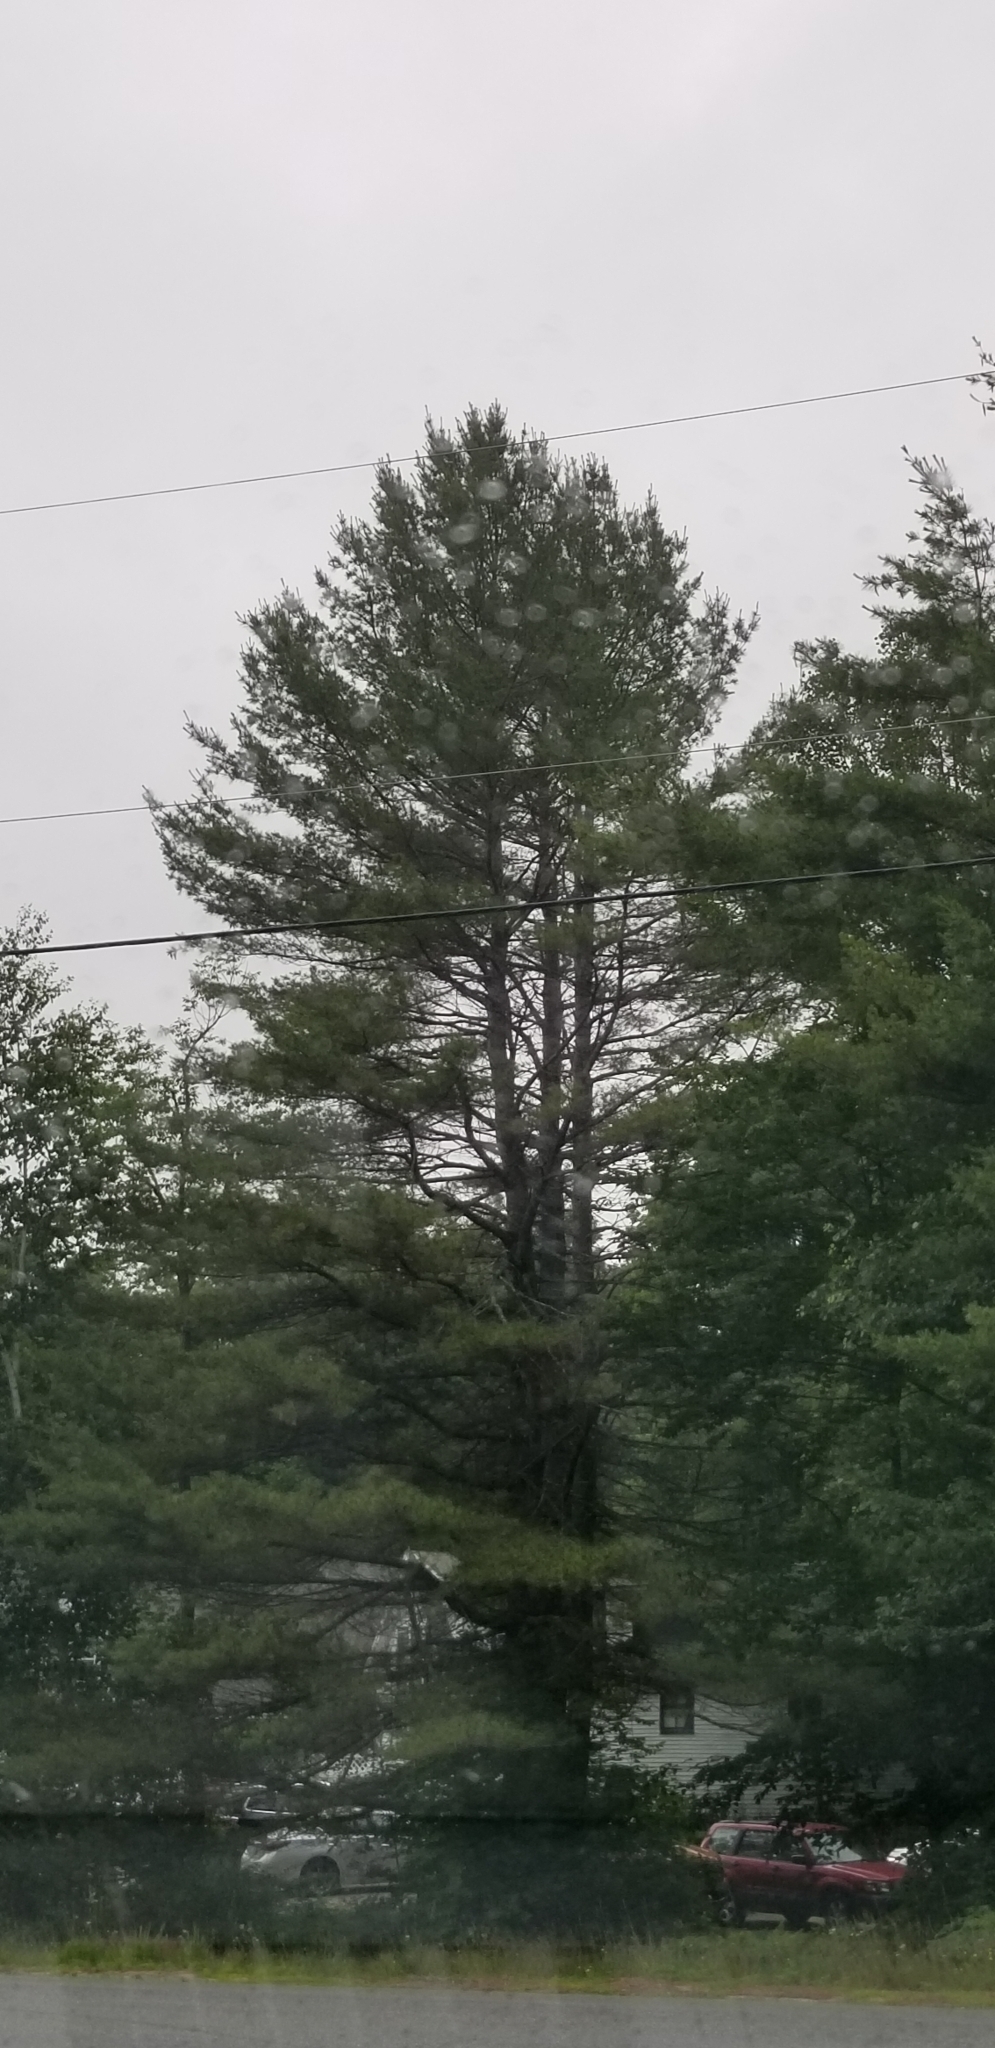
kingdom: Plantae
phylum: Tracheophyta
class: Pinopsida
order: Pinales
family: Pinaceae
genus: Pinus
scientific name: Pinus strobus
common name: Weymouth pine
